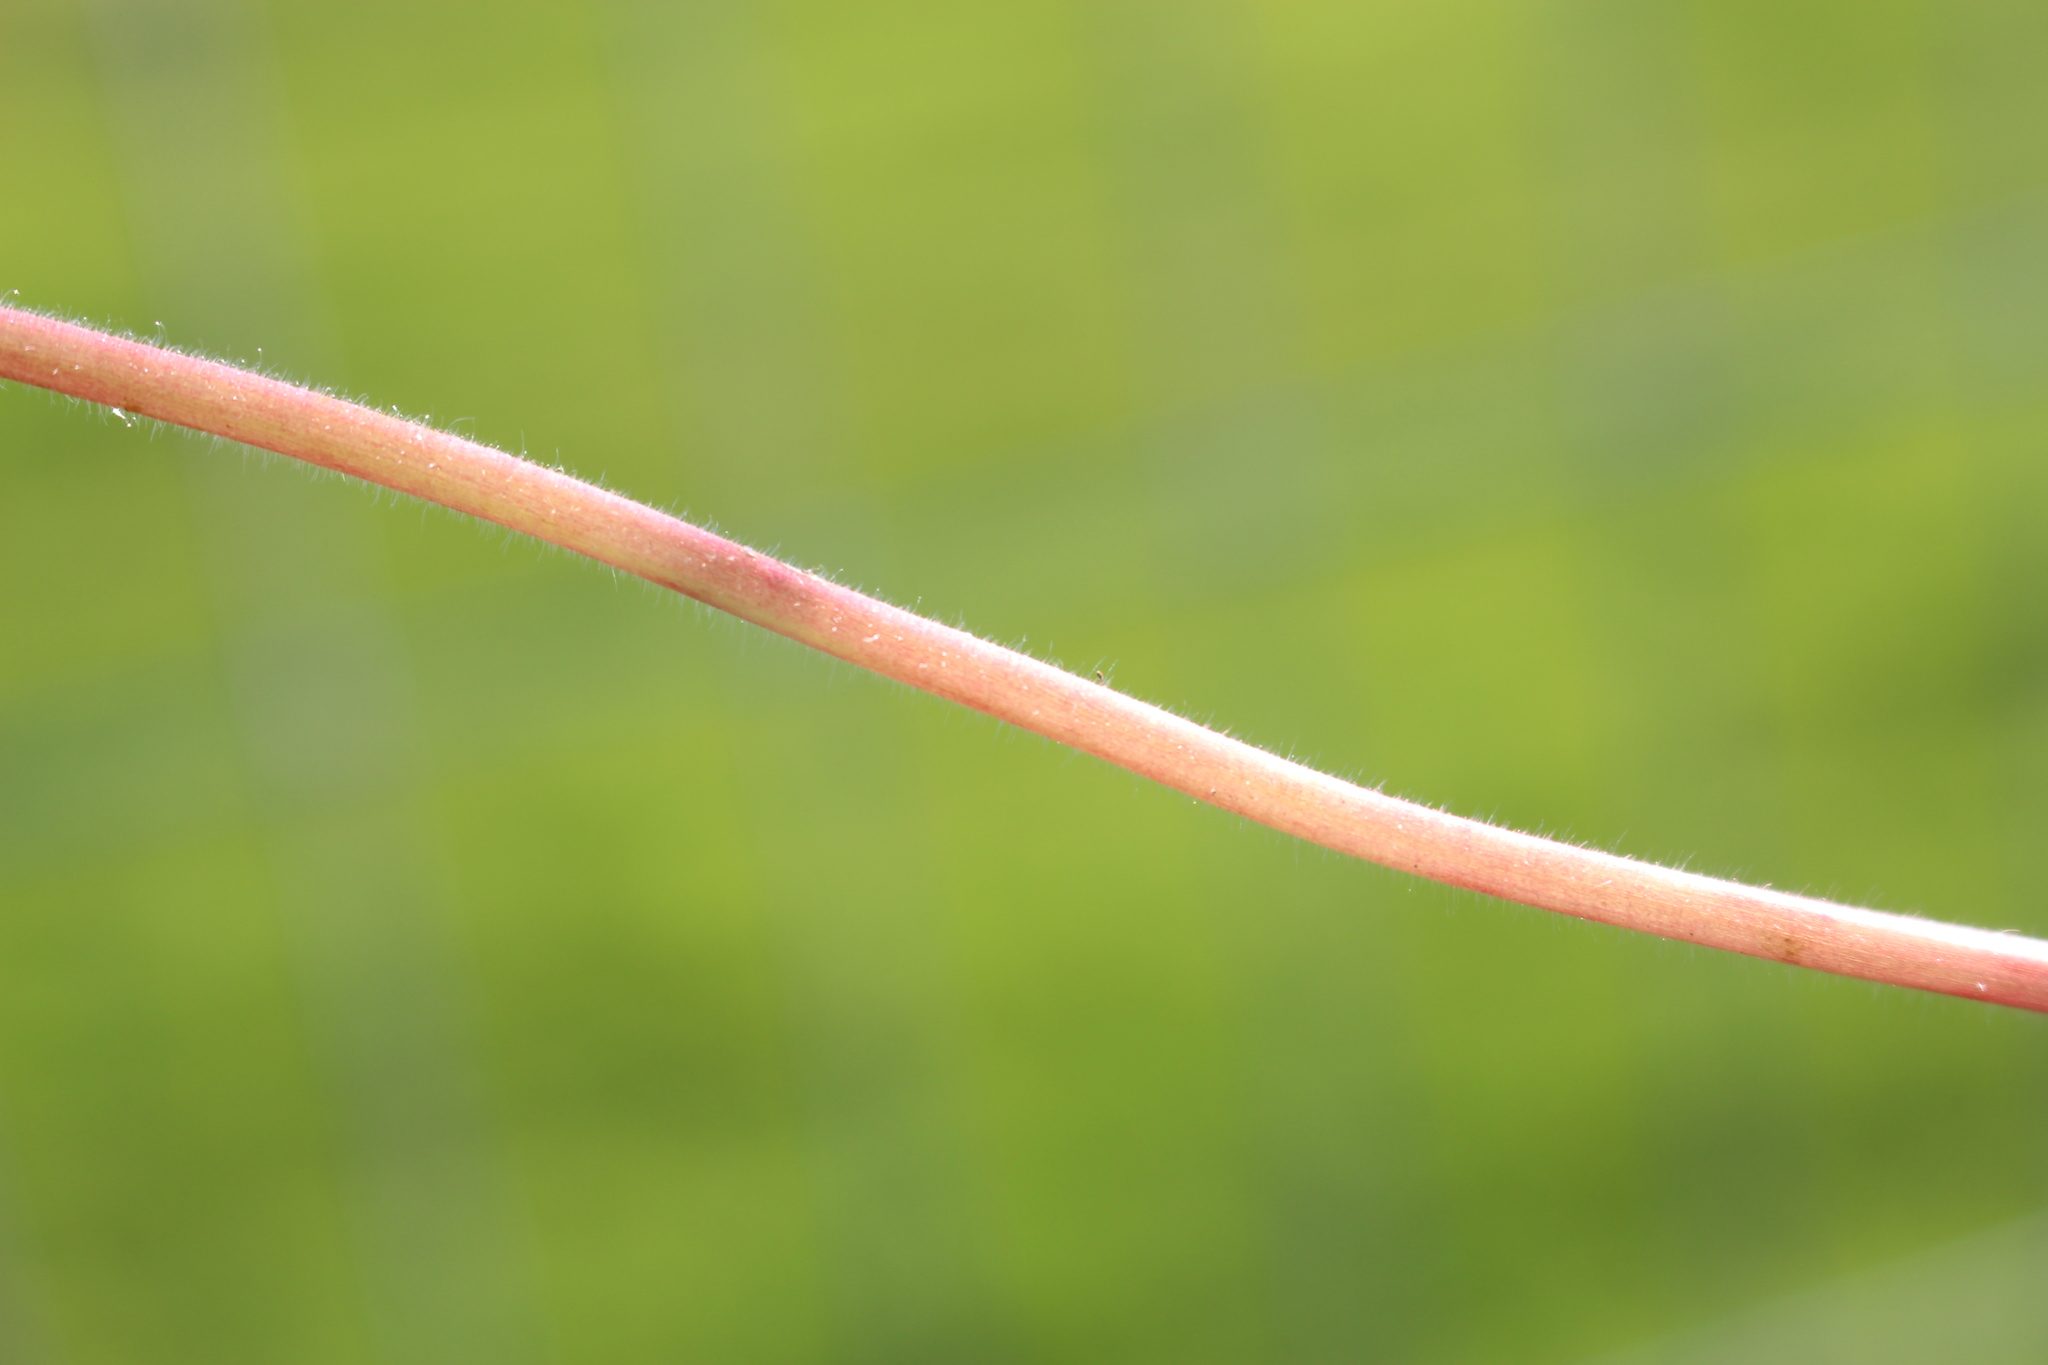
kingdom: Plantae
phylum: Tracheophyta
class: Magnoliopsida
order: Geraniales
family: Geraniaceae
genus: Geranium
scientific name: Geranium molle
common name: Dove's-foot crane's-bill
